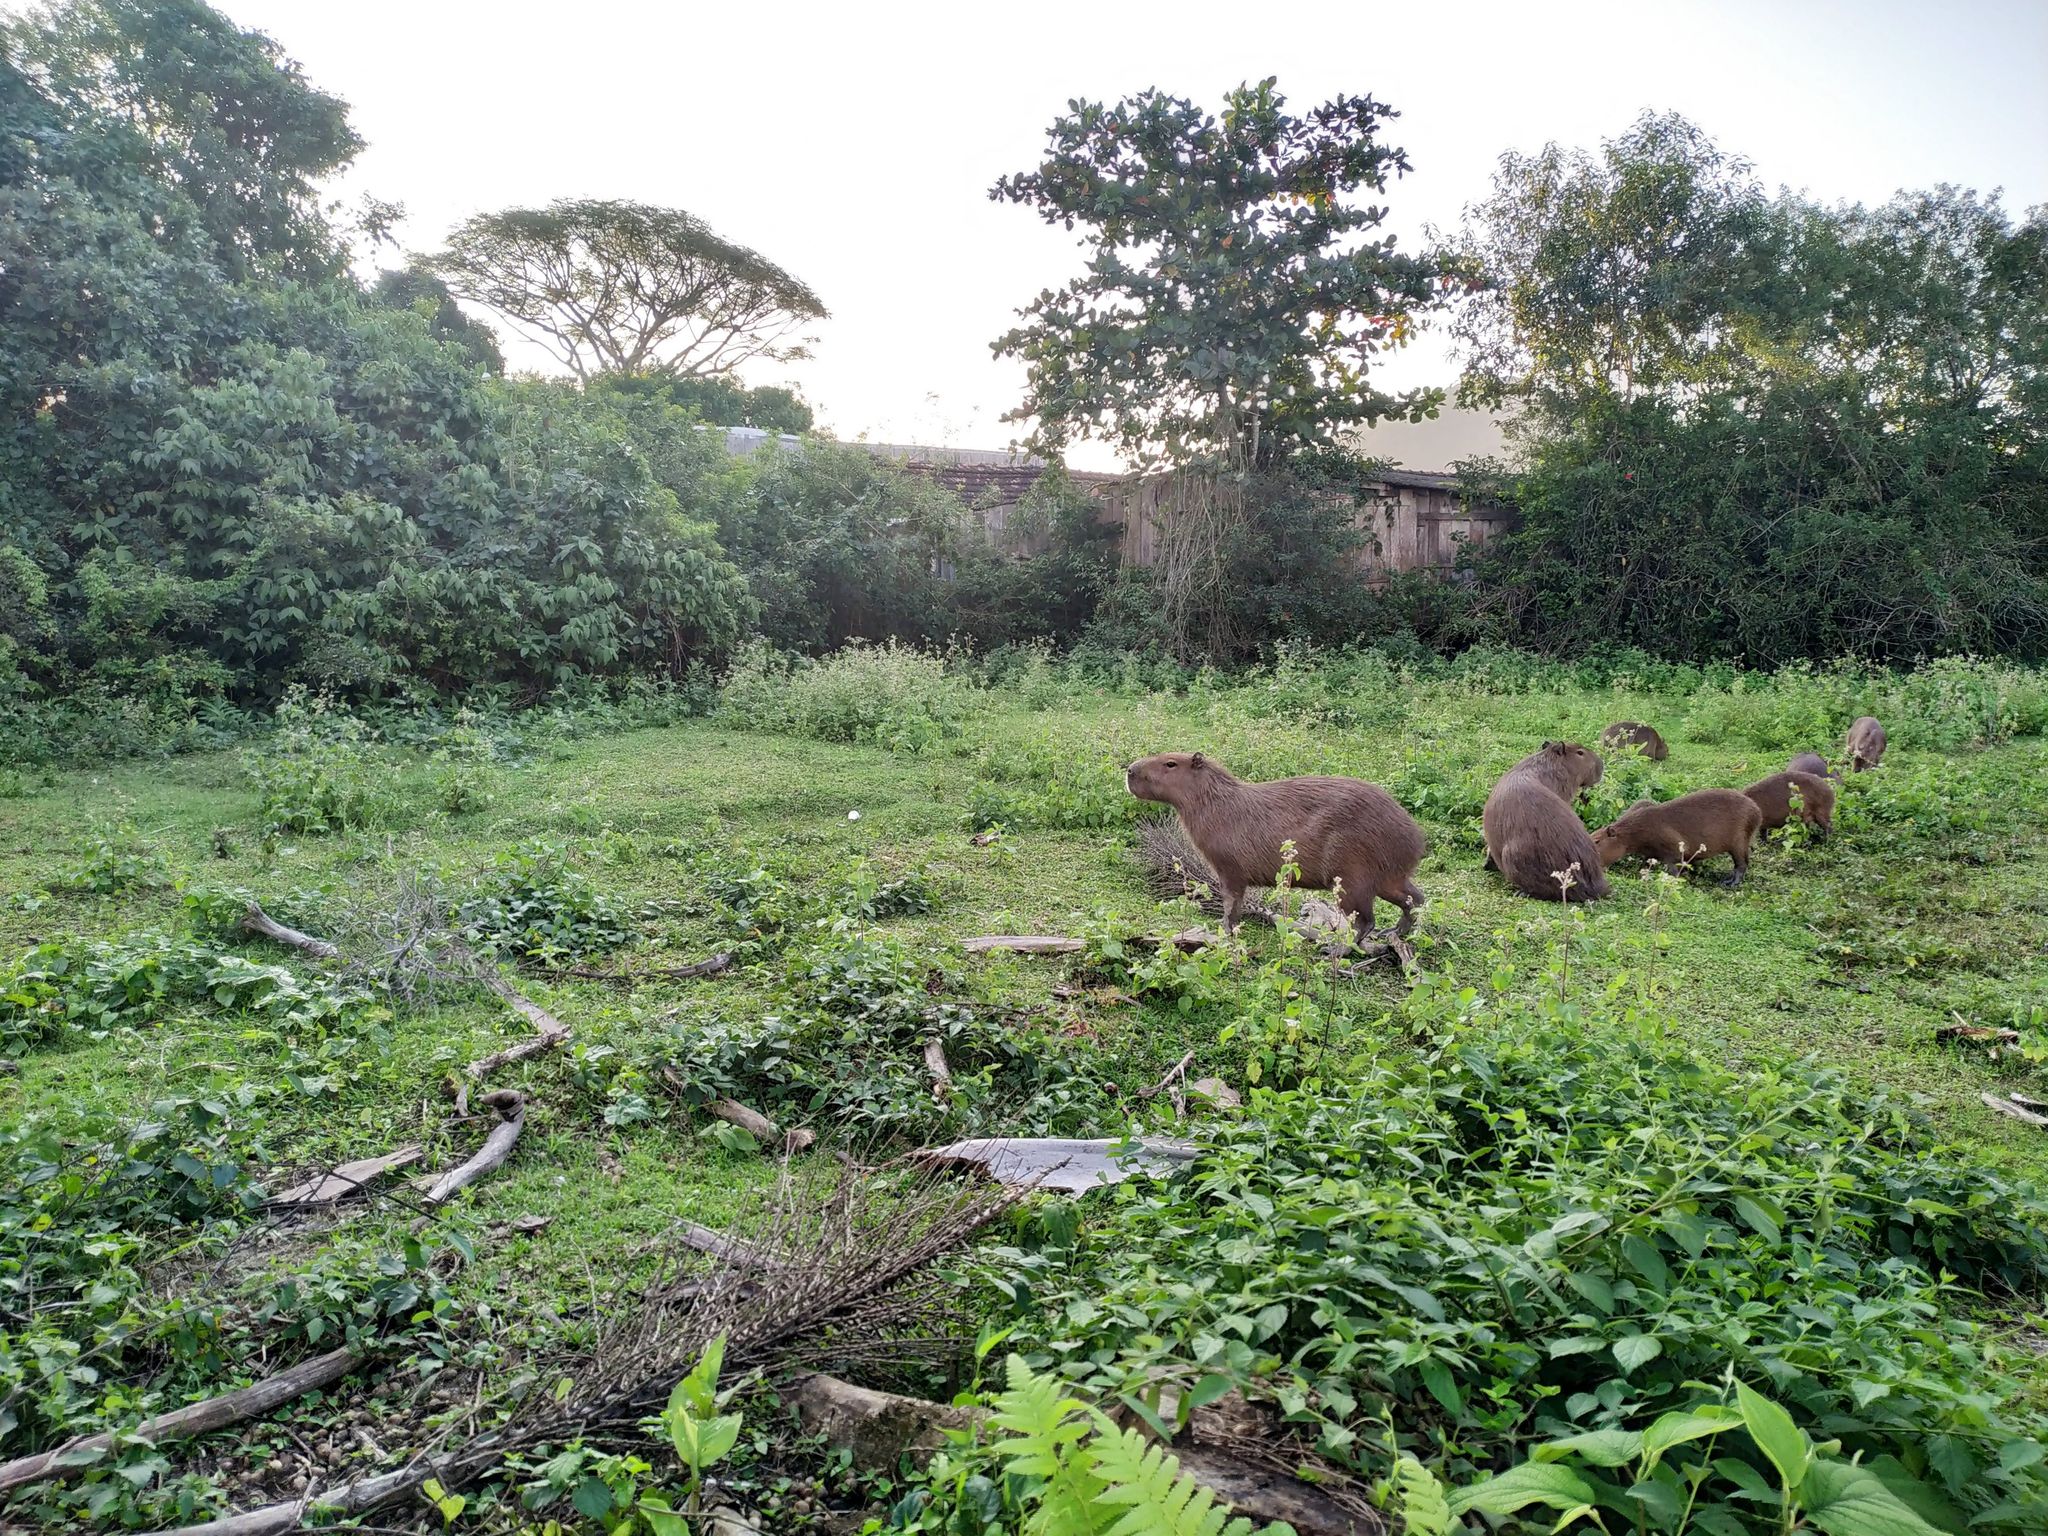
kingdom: Animalia
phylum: Chordata
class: Mammalia
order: Rodentia
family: Caviidae
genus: Hydrochoerus
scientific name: Hydrochoerus hydrochaeris
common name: Capybara
